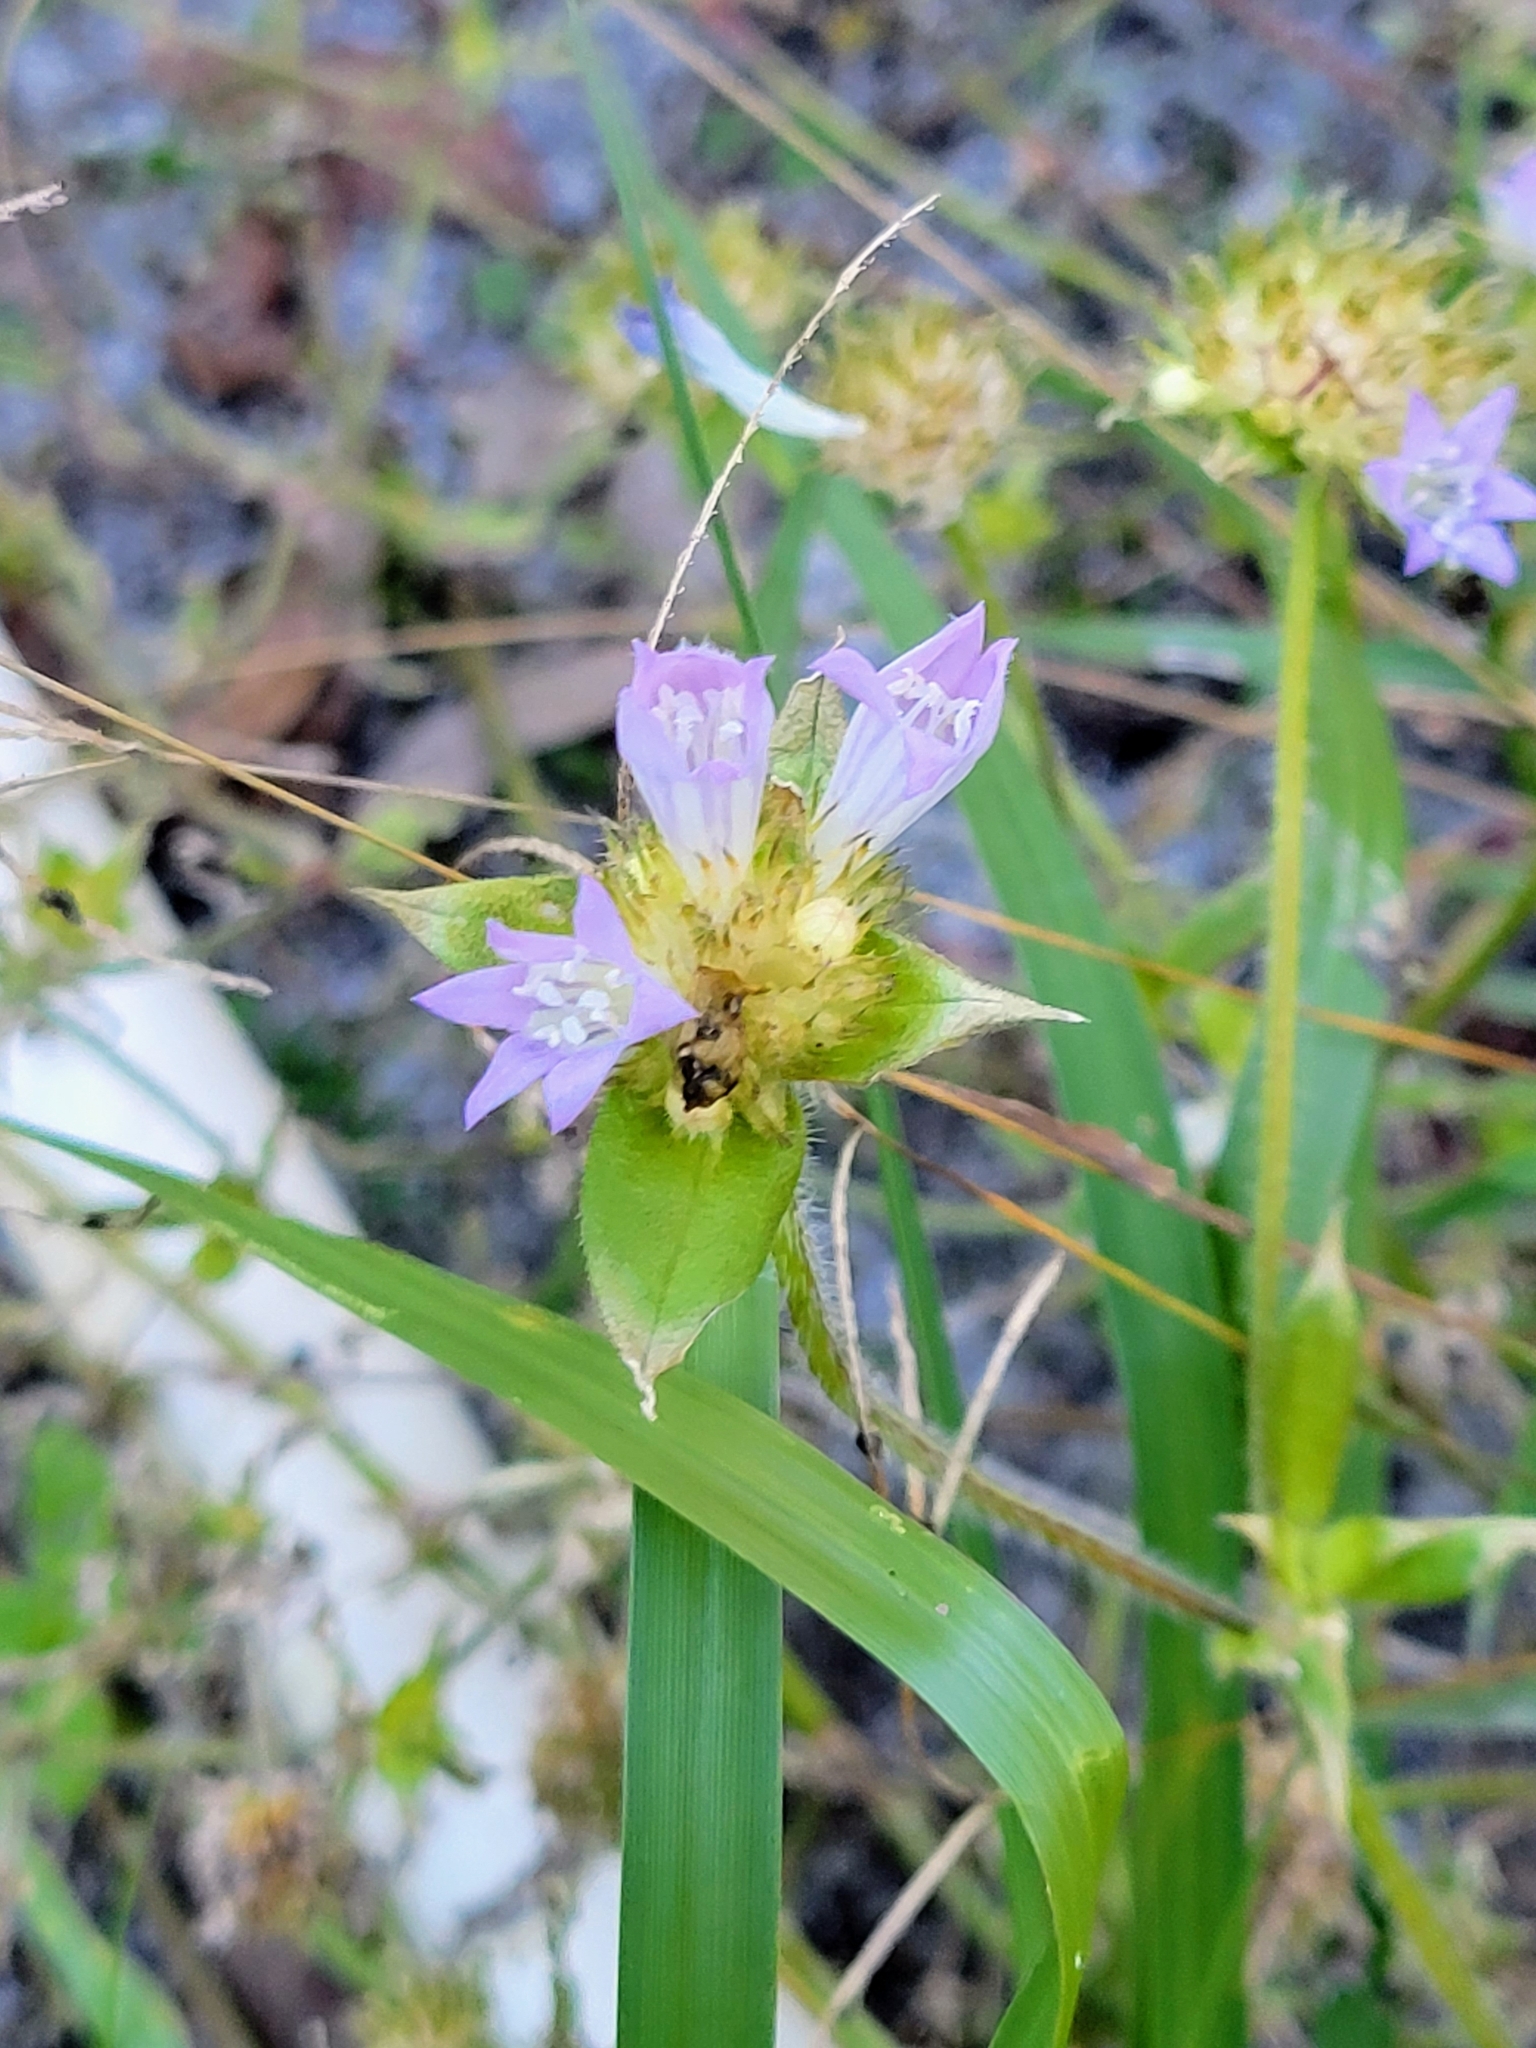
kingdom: Plantae
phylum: Tracheophyta
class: Magnoliopsida
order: Gentianales
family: Rubiaceae
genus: Richardia
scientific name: Richardia grandiflora
